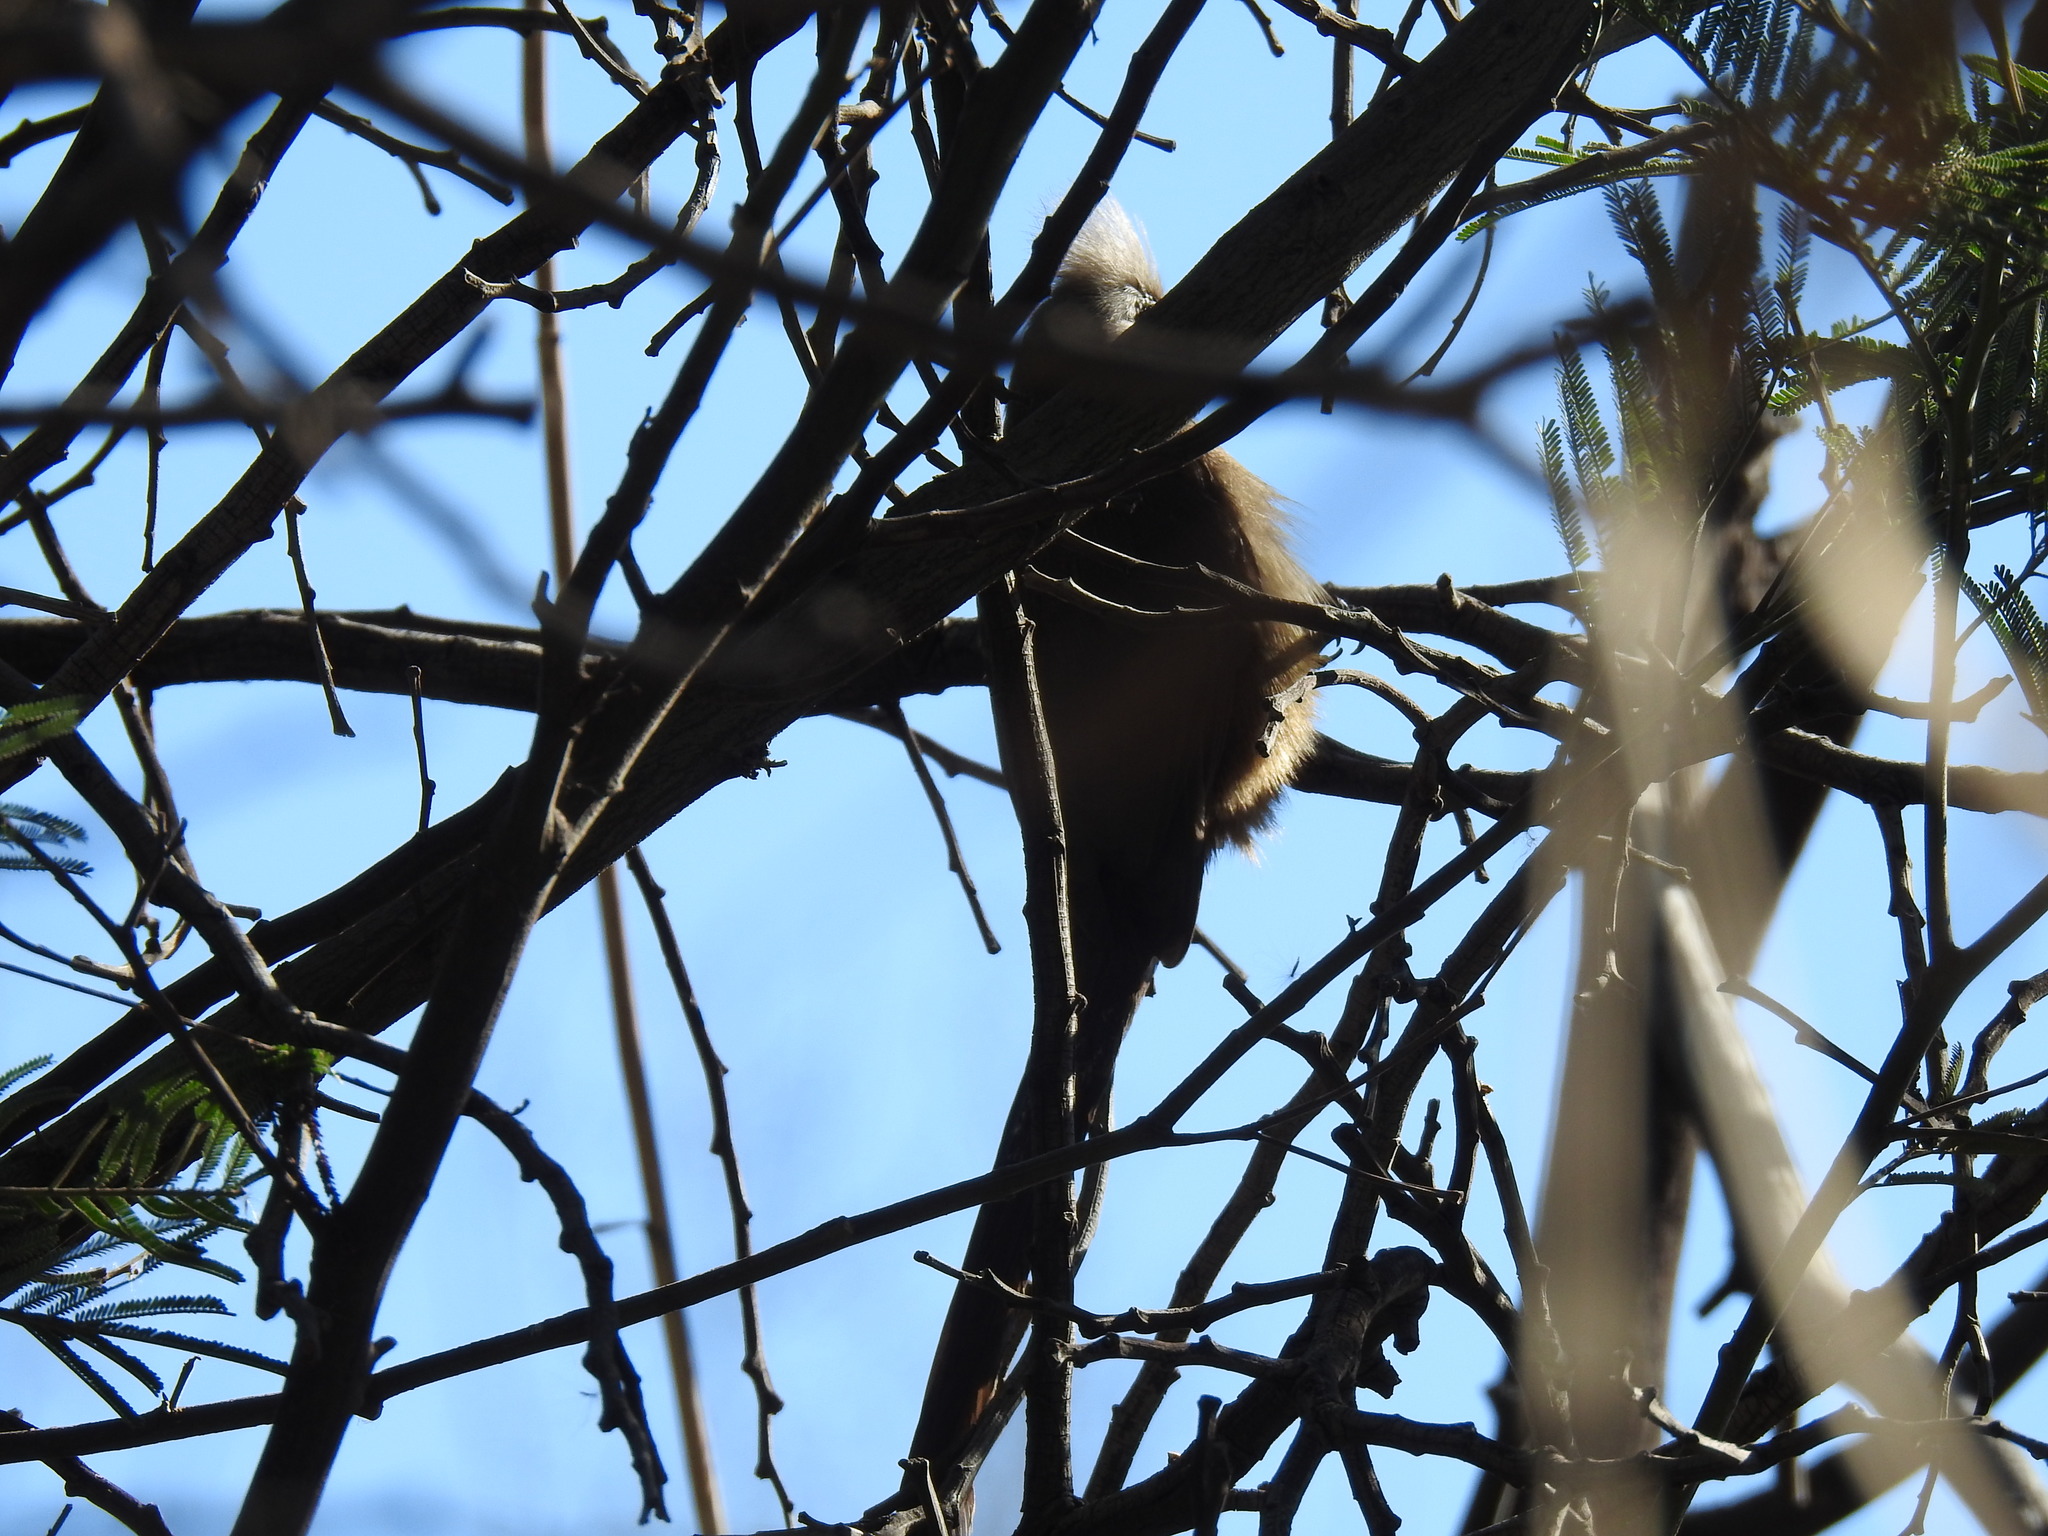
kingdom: Animalia
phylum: Chordata
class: Aves
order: Coliiformes
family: Coliidae
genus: Colius
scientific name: Colius striatus
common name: Speckled mousebird
